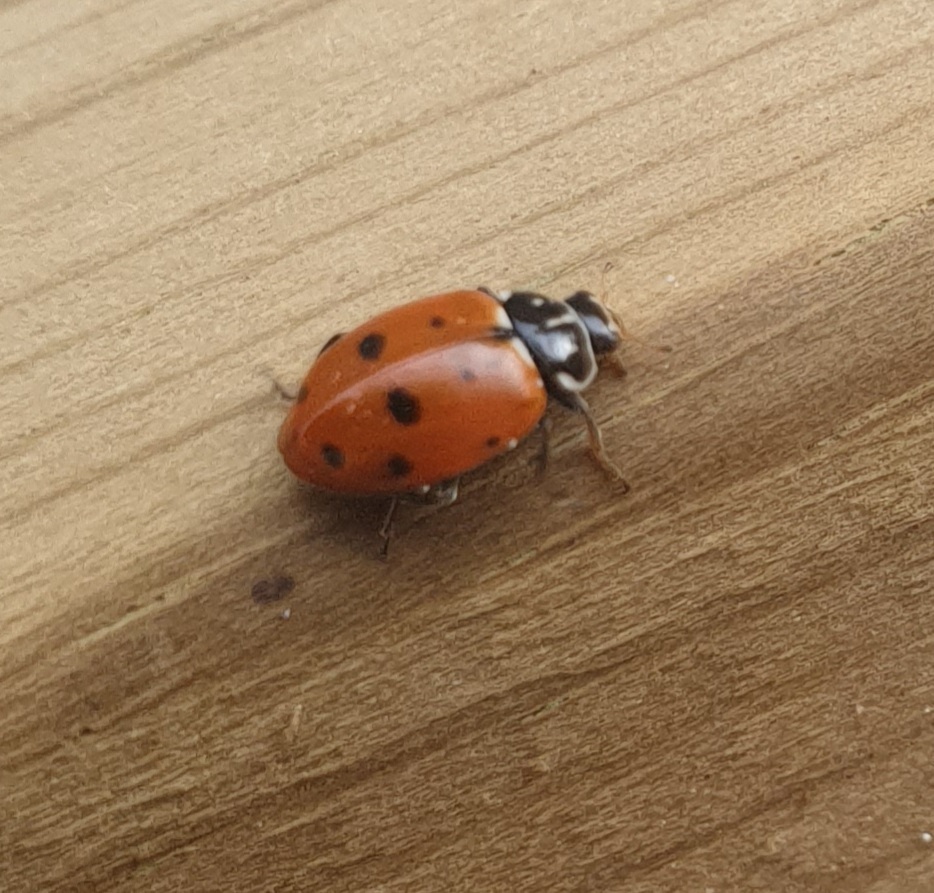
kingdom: Animalia
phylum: Arthropoda
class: Insecta
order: Coleoptera
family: Coccinellidae
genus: Hippodamia
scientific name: Hippodamia variegata
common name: Ladybird beetle
